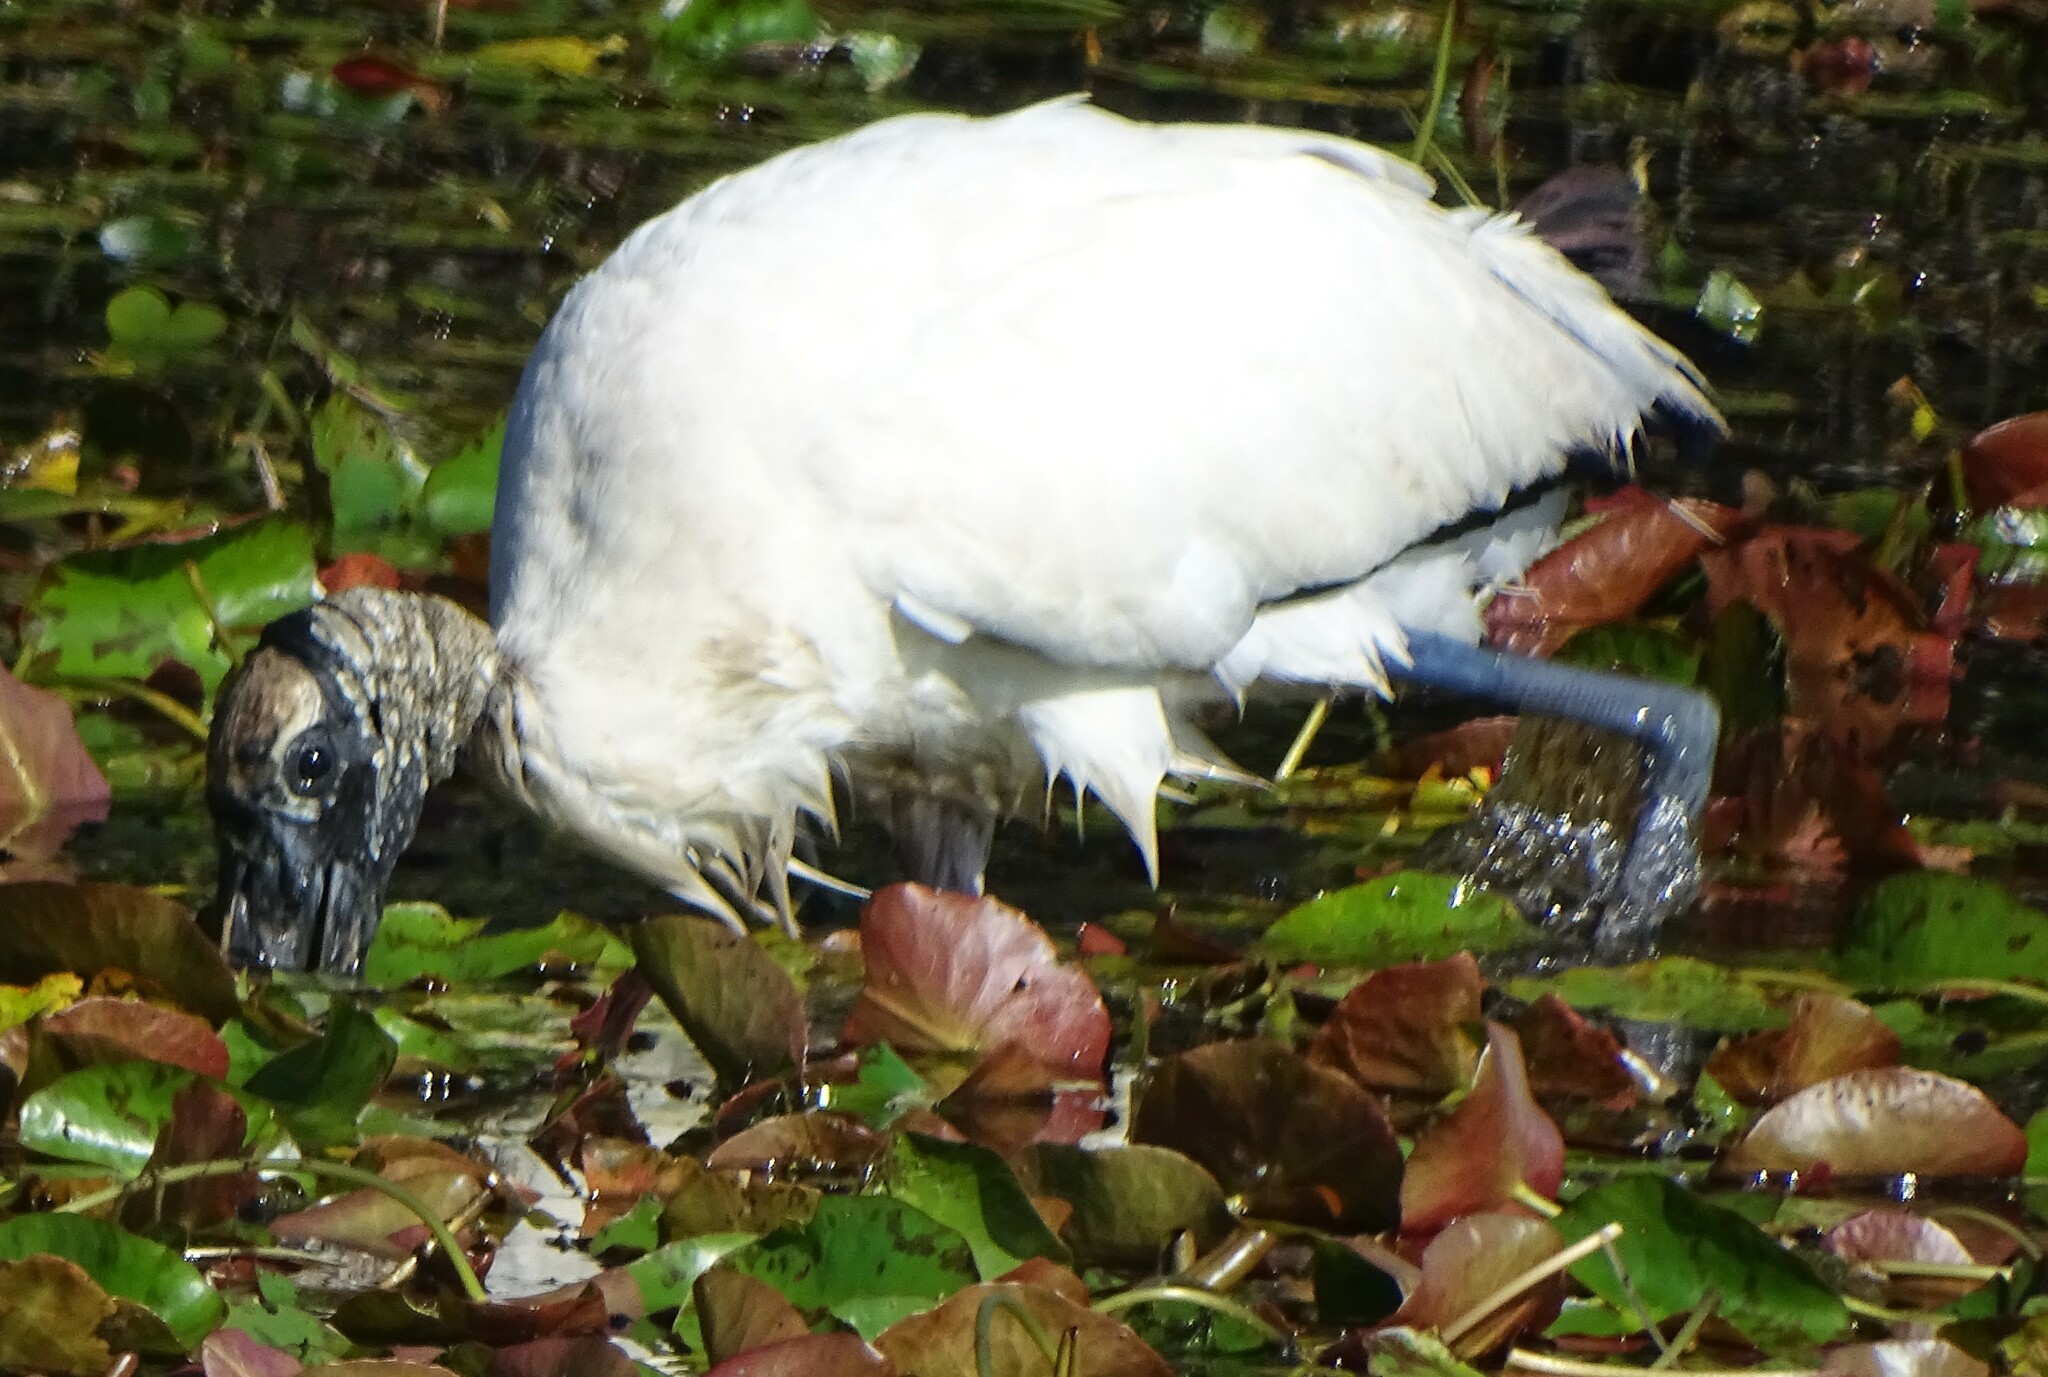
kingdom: Animalia
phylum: Chordata
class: Aves
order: Ciconiiformes
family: Ciconiidae
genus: Mycteria
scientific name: Mycteria americana
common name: Wood stork
